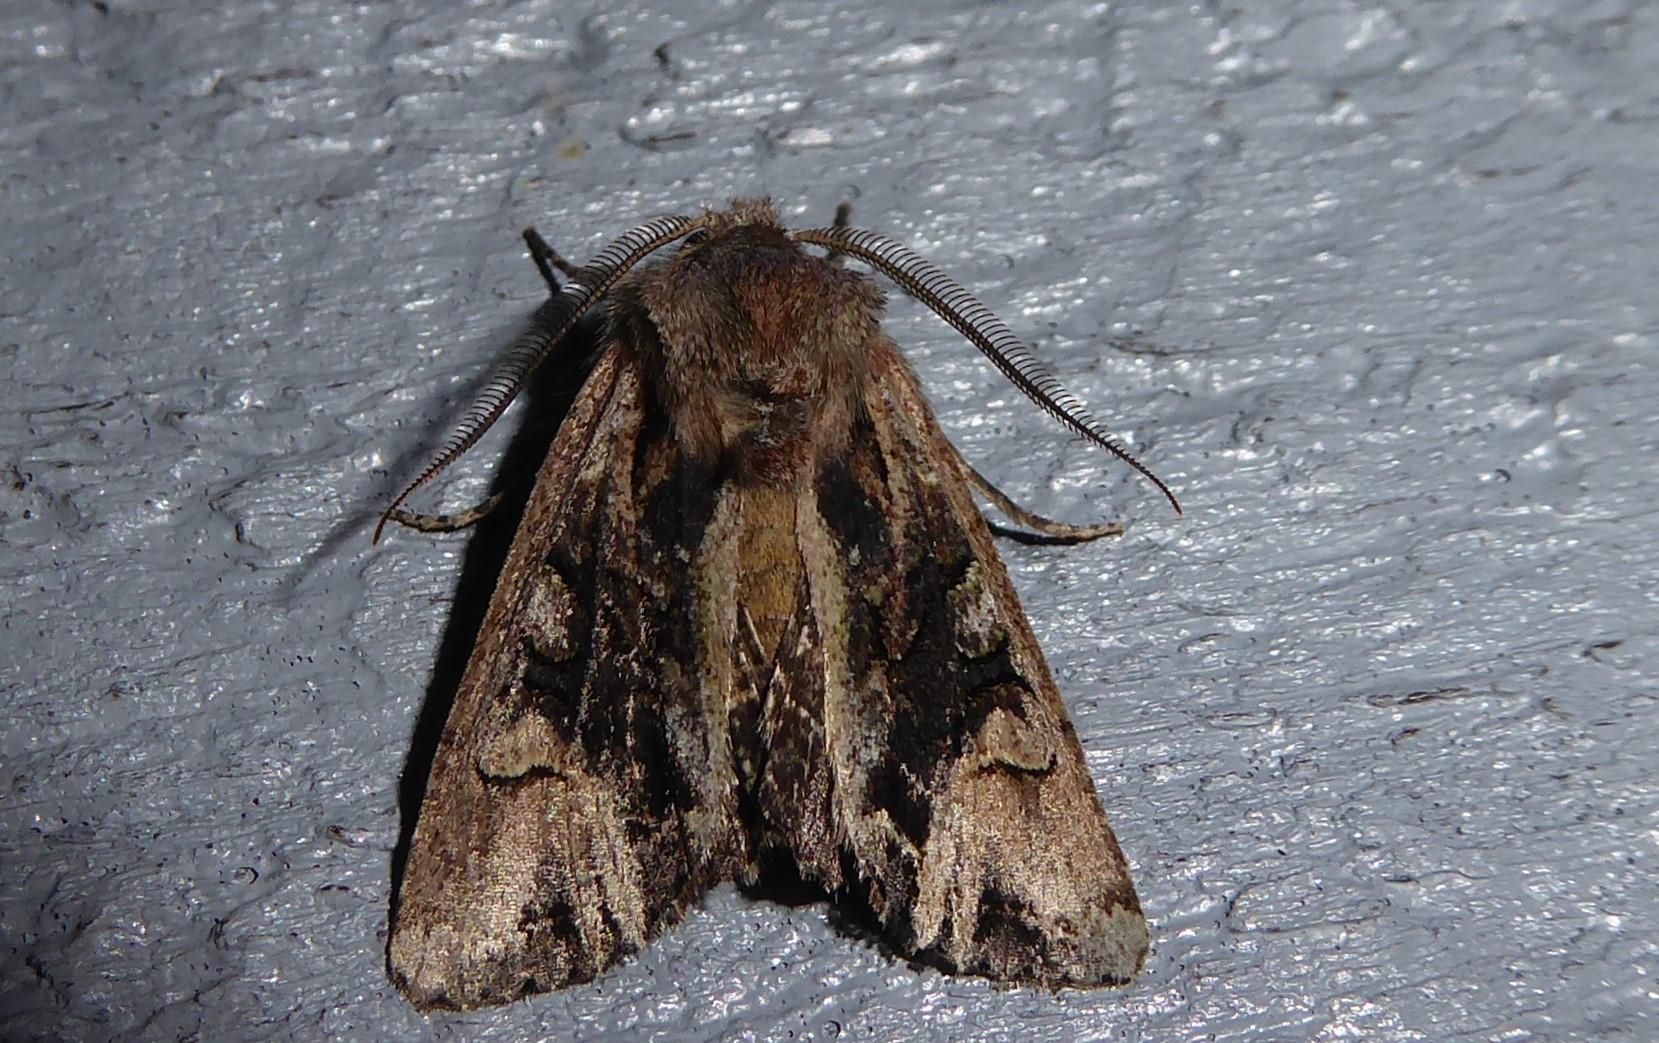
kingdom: Animalia
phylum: Arthropoda
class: Insecta
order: Lepidoptera
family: Noctuidae
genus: Ichneutica
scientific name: Ichneutica skelloni
